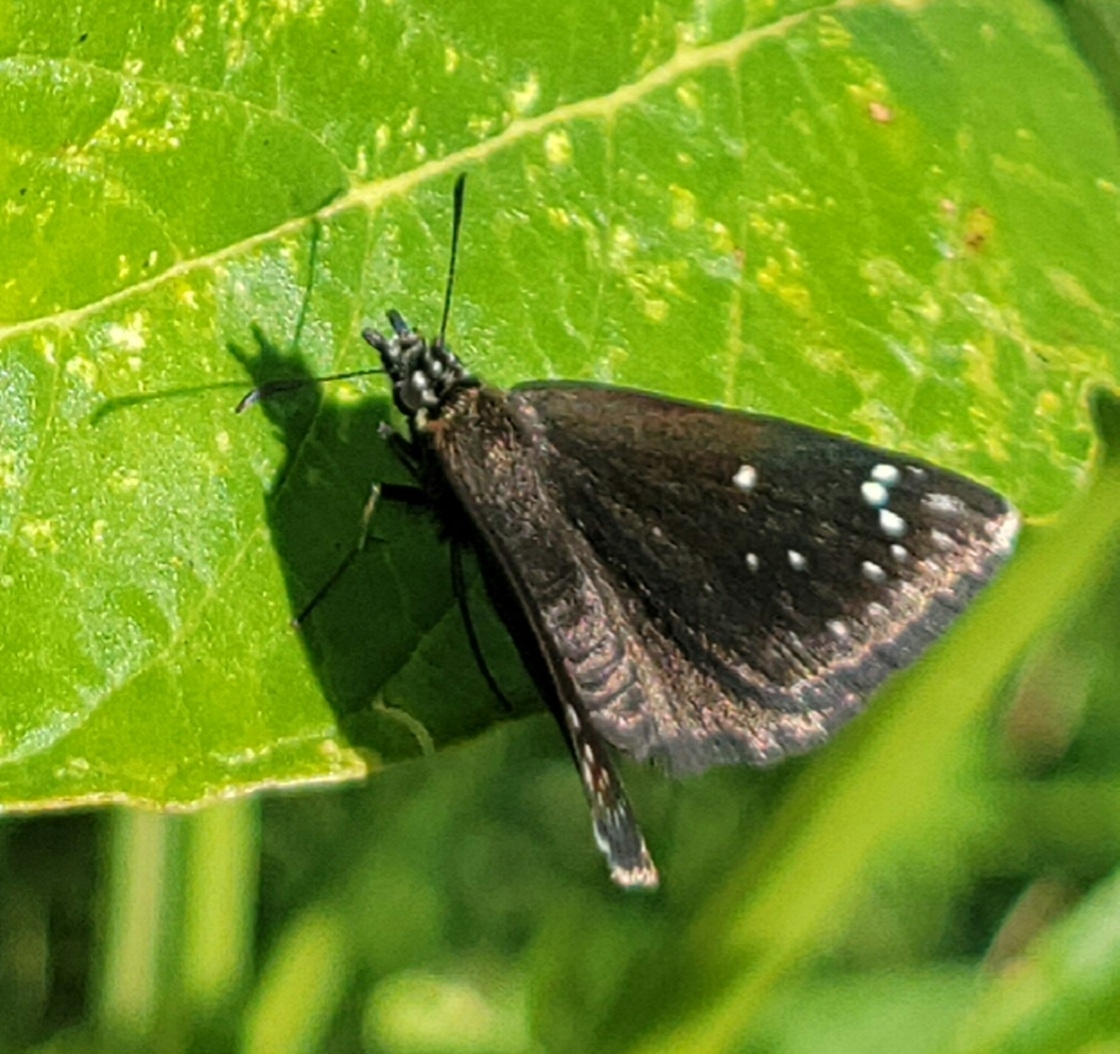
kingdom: Animalia
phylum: Arthropoda
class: Insecta
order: Lepidoptera
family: Hesperiidae
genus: Pholisora
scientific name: Pholisora catullus
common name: Common sootywing
